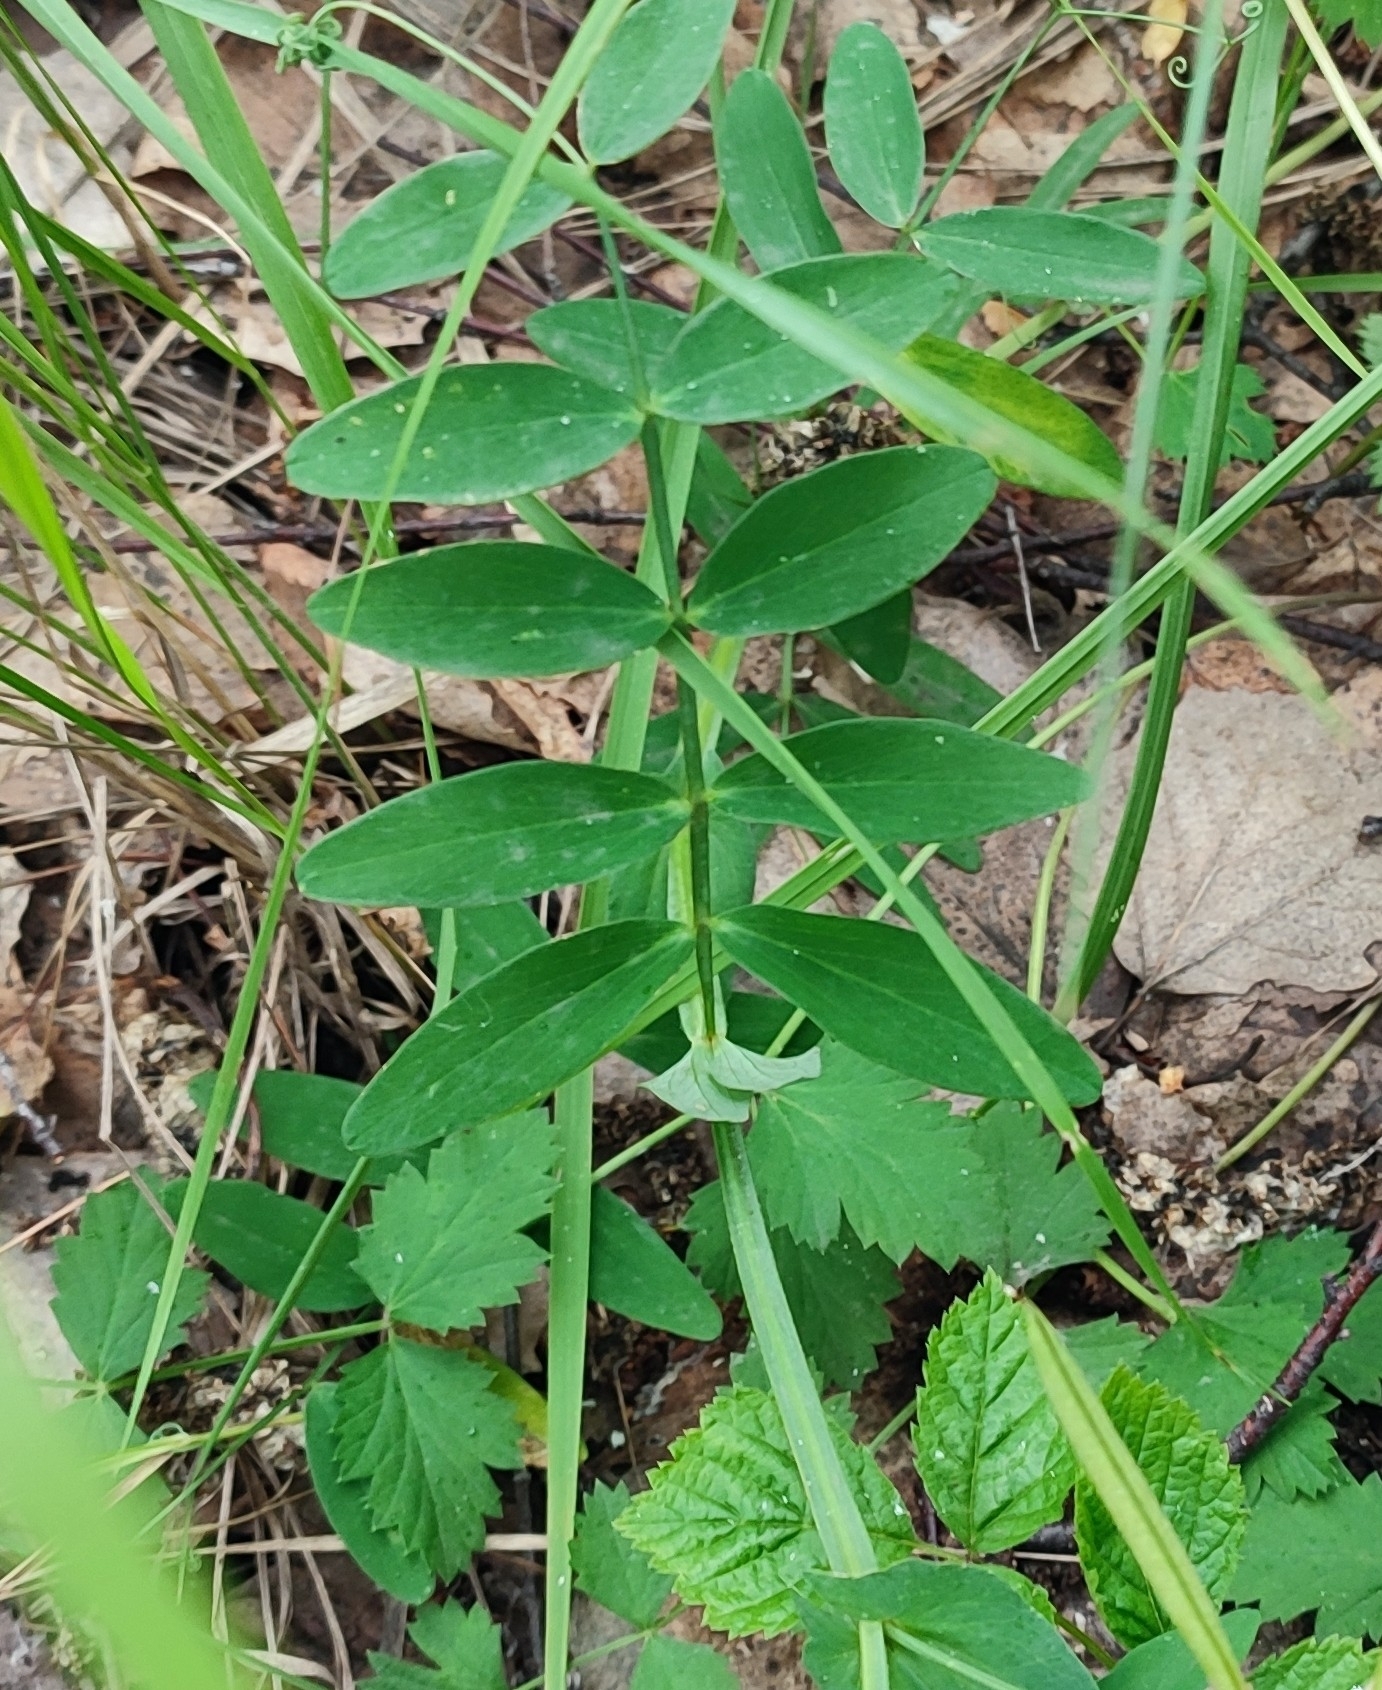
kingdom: Plantae
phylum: Tracheophyta
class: Magnoliopsida
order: Fabales
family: Fabaceae
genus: Lathyrus
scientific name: Lathyrus pisiformis
